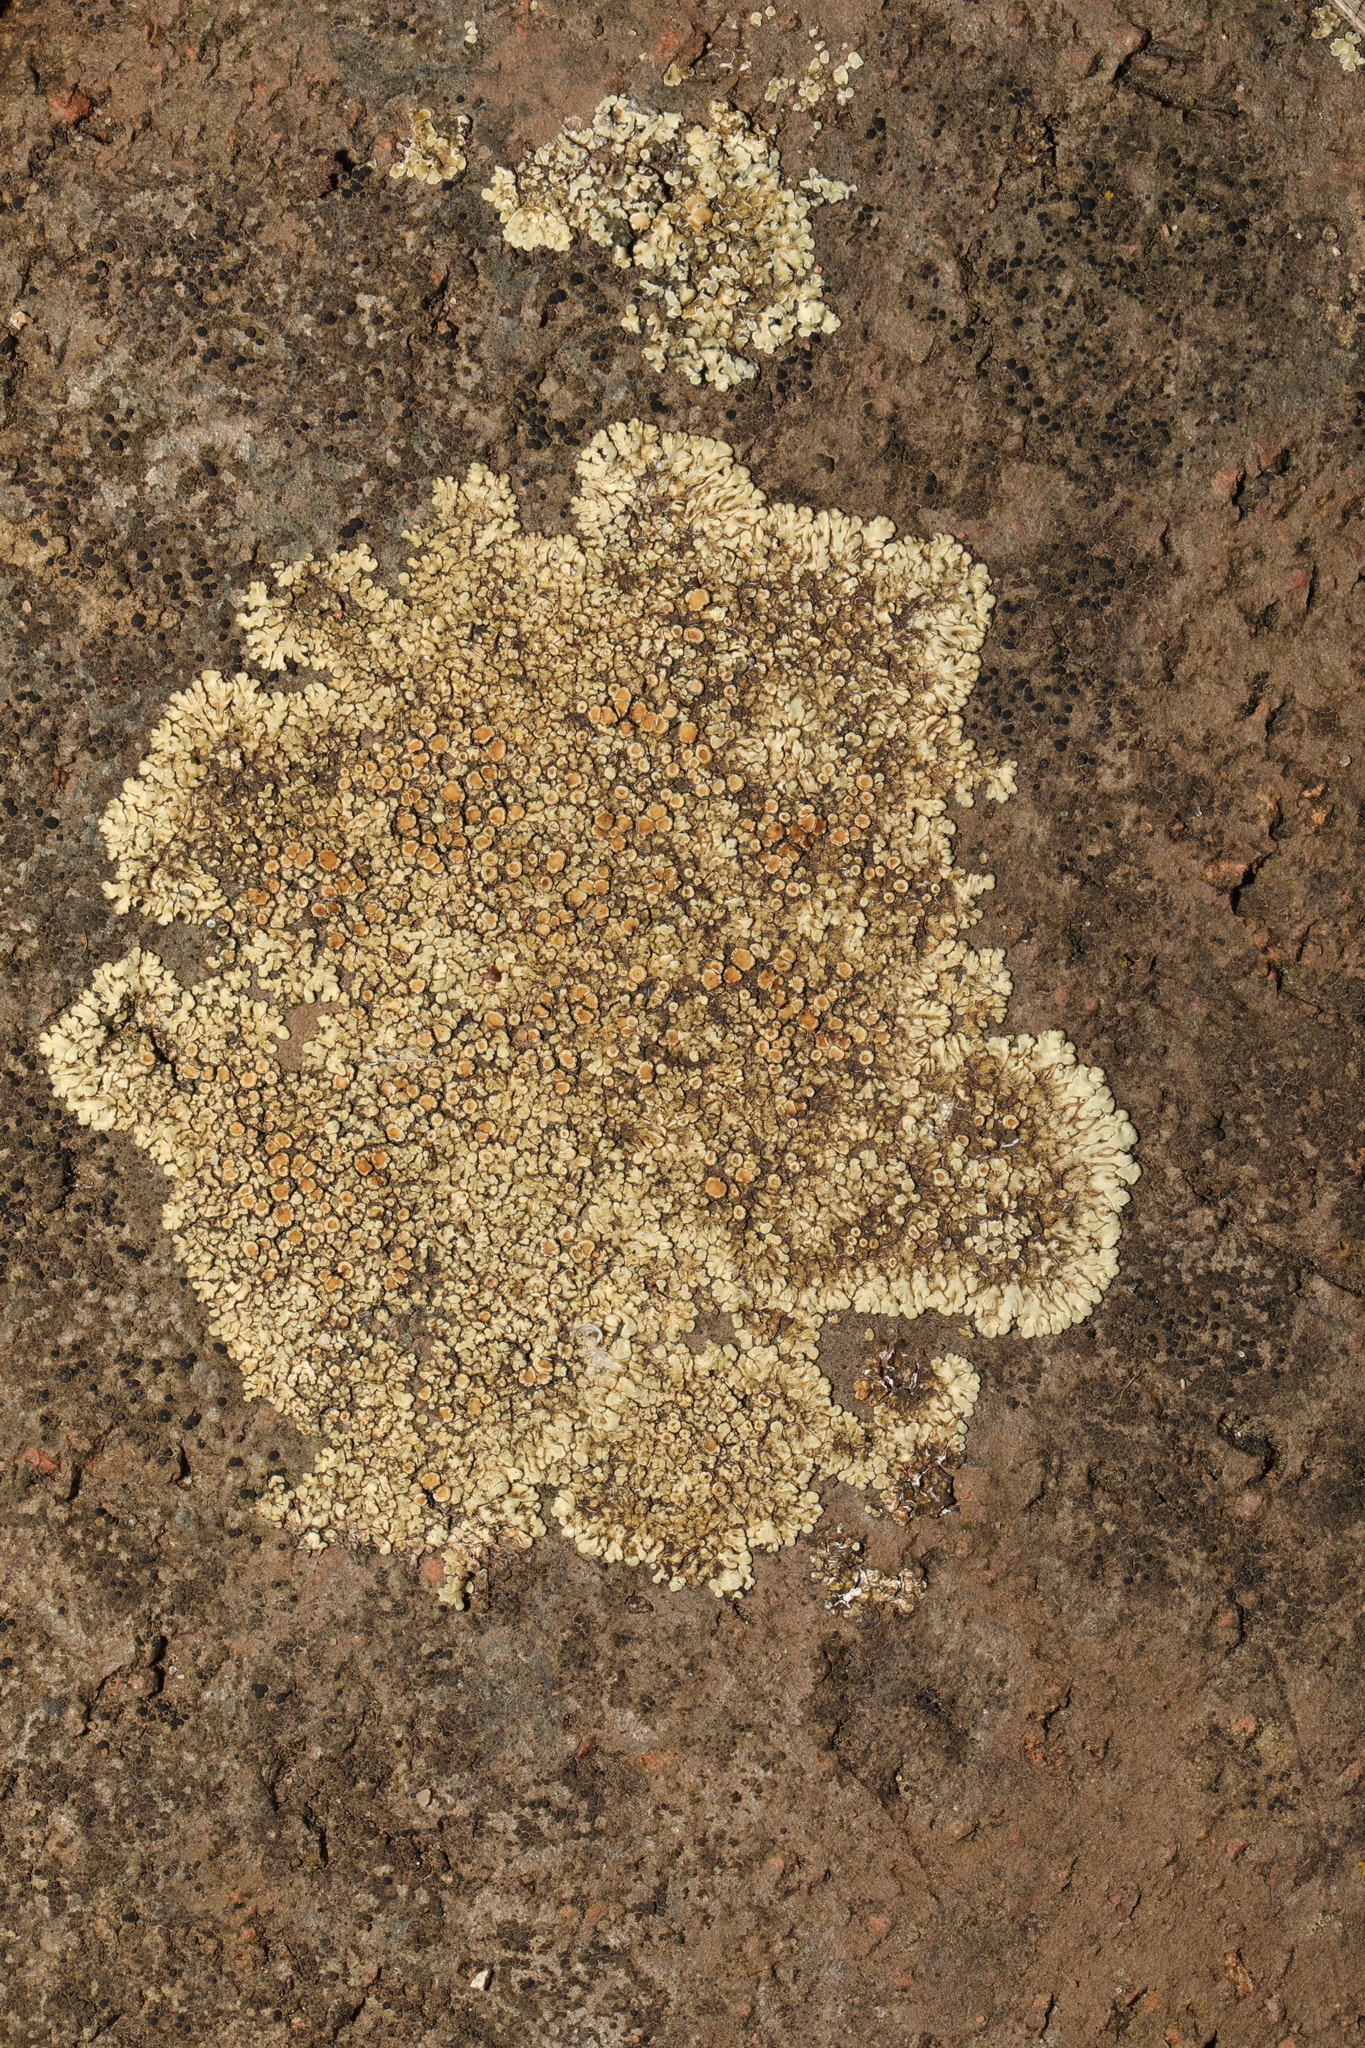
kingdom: Fungi
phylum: Ascomycota
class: Lecanoromycetes
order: Lecanorales
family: Lecanoraceae
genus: Protoparmeliopsis
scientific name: Protoparmeliopsis muralis
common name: Stonewall rim lichen
